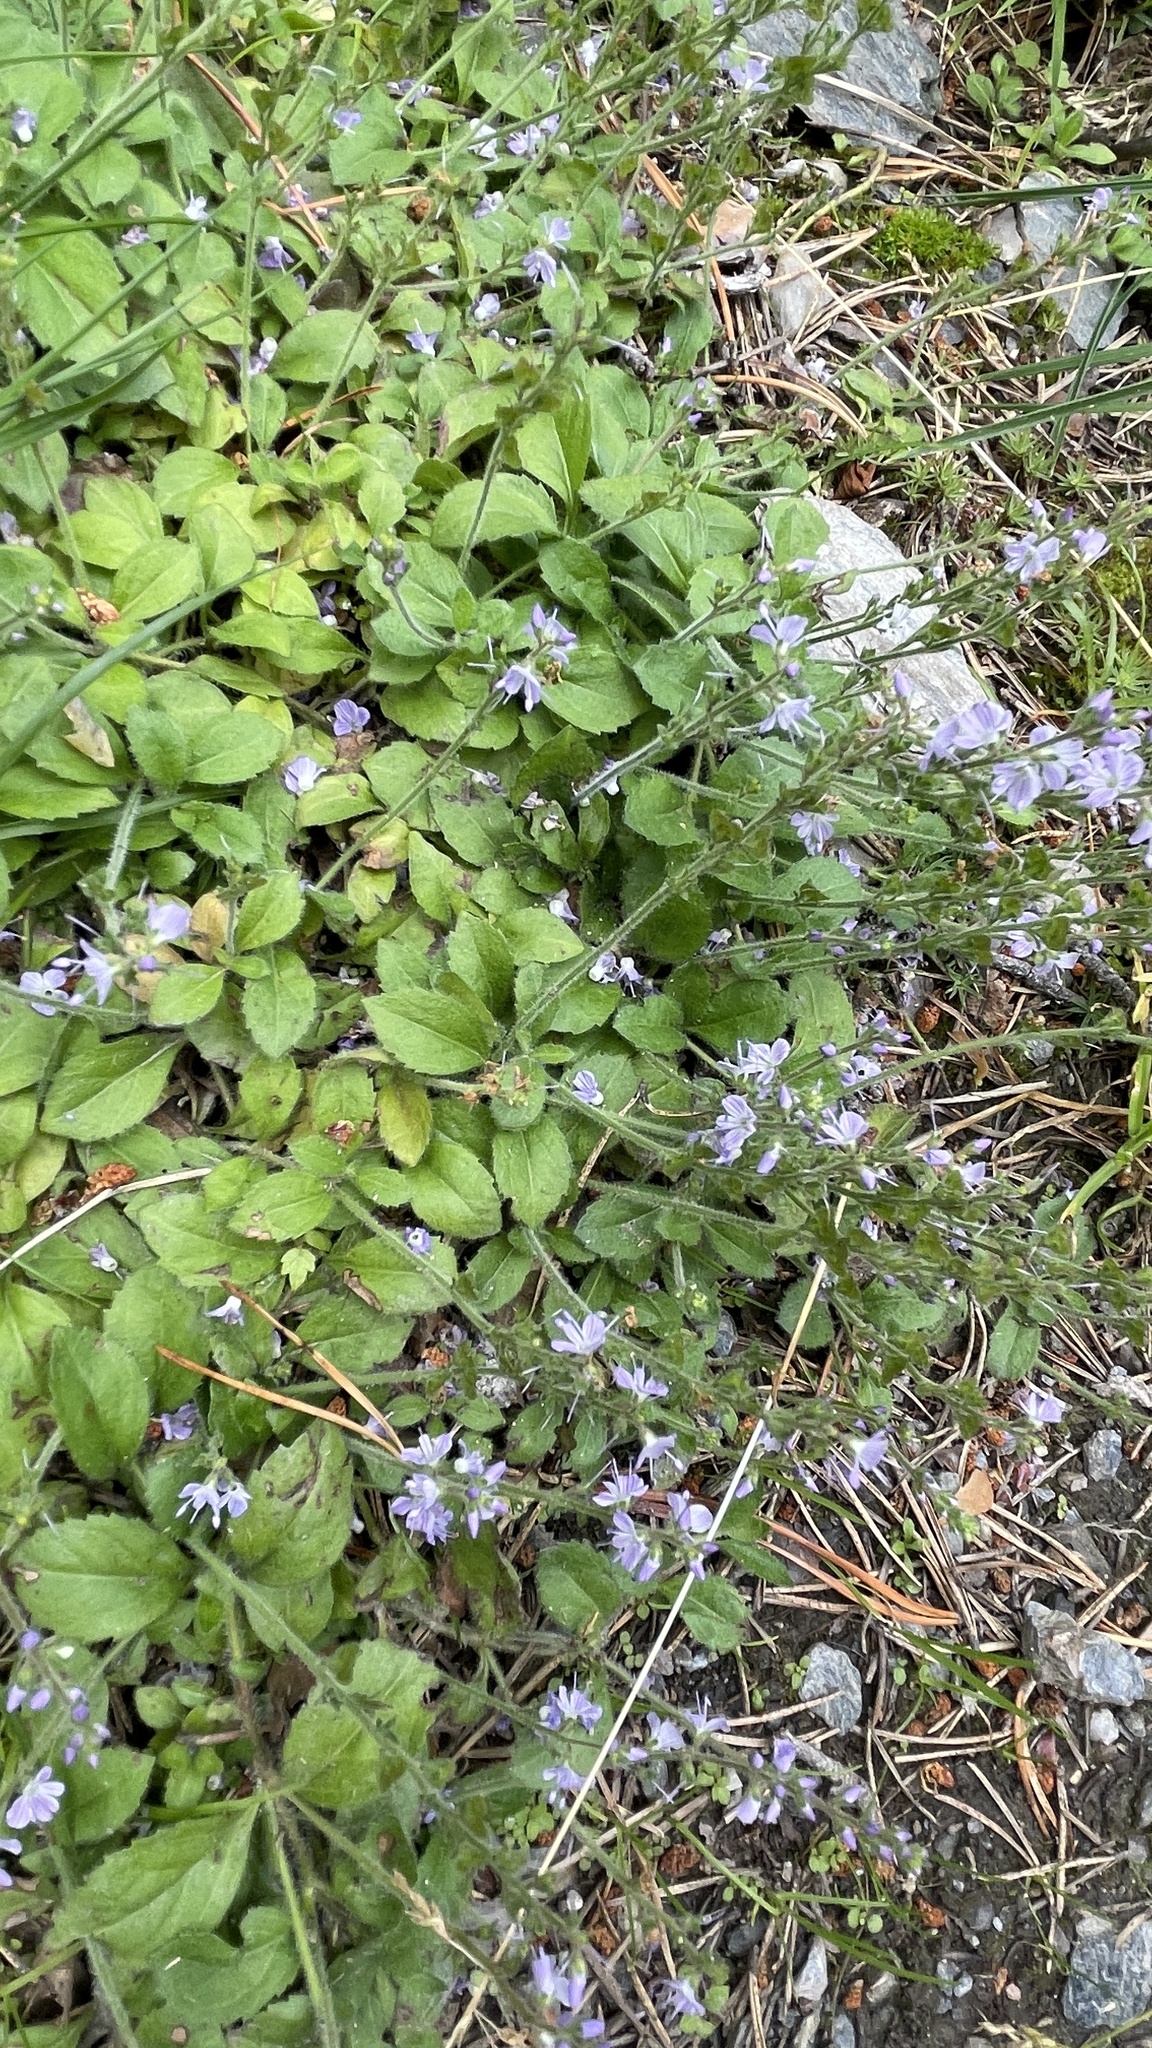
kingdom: Plantae
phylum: Tracheophyta
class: Magnoliopsida
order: Lamiales
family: Plantaginaceae
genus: Veronica
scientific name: Veronica officinalis
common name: Common speedwell
